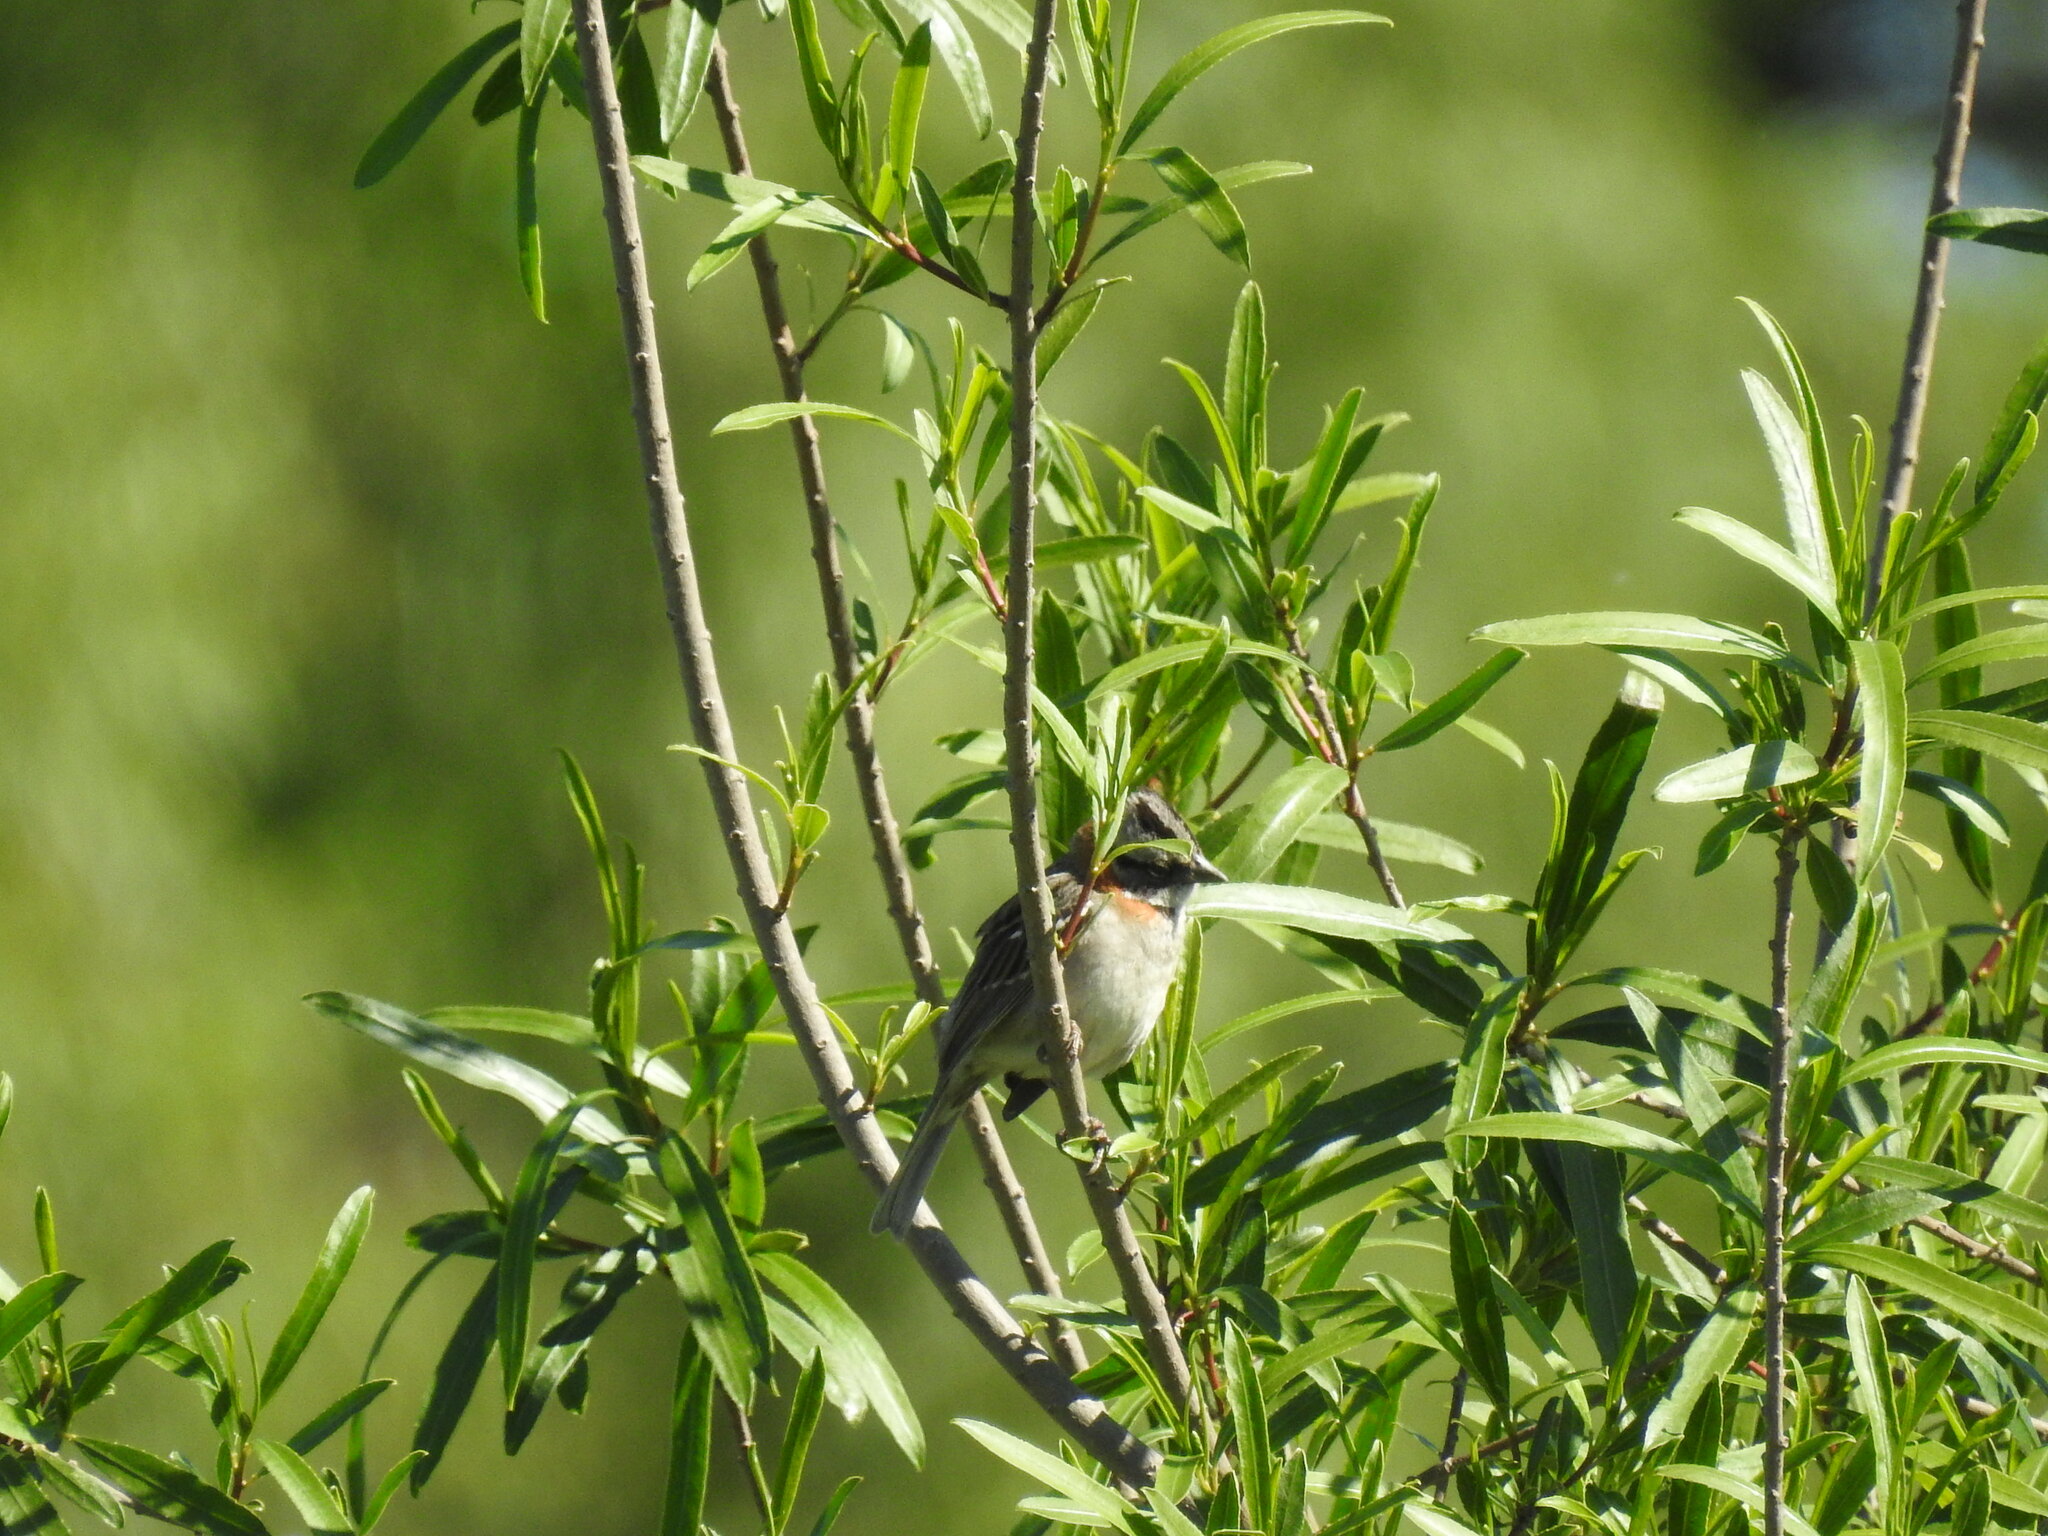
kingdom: Animalia
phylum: Chordata
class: Aves
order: Passeriformes
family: Passerellidae
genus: Zonotrichia
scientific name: Zonotrichia capensis
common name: Rufous-collared sparrow
